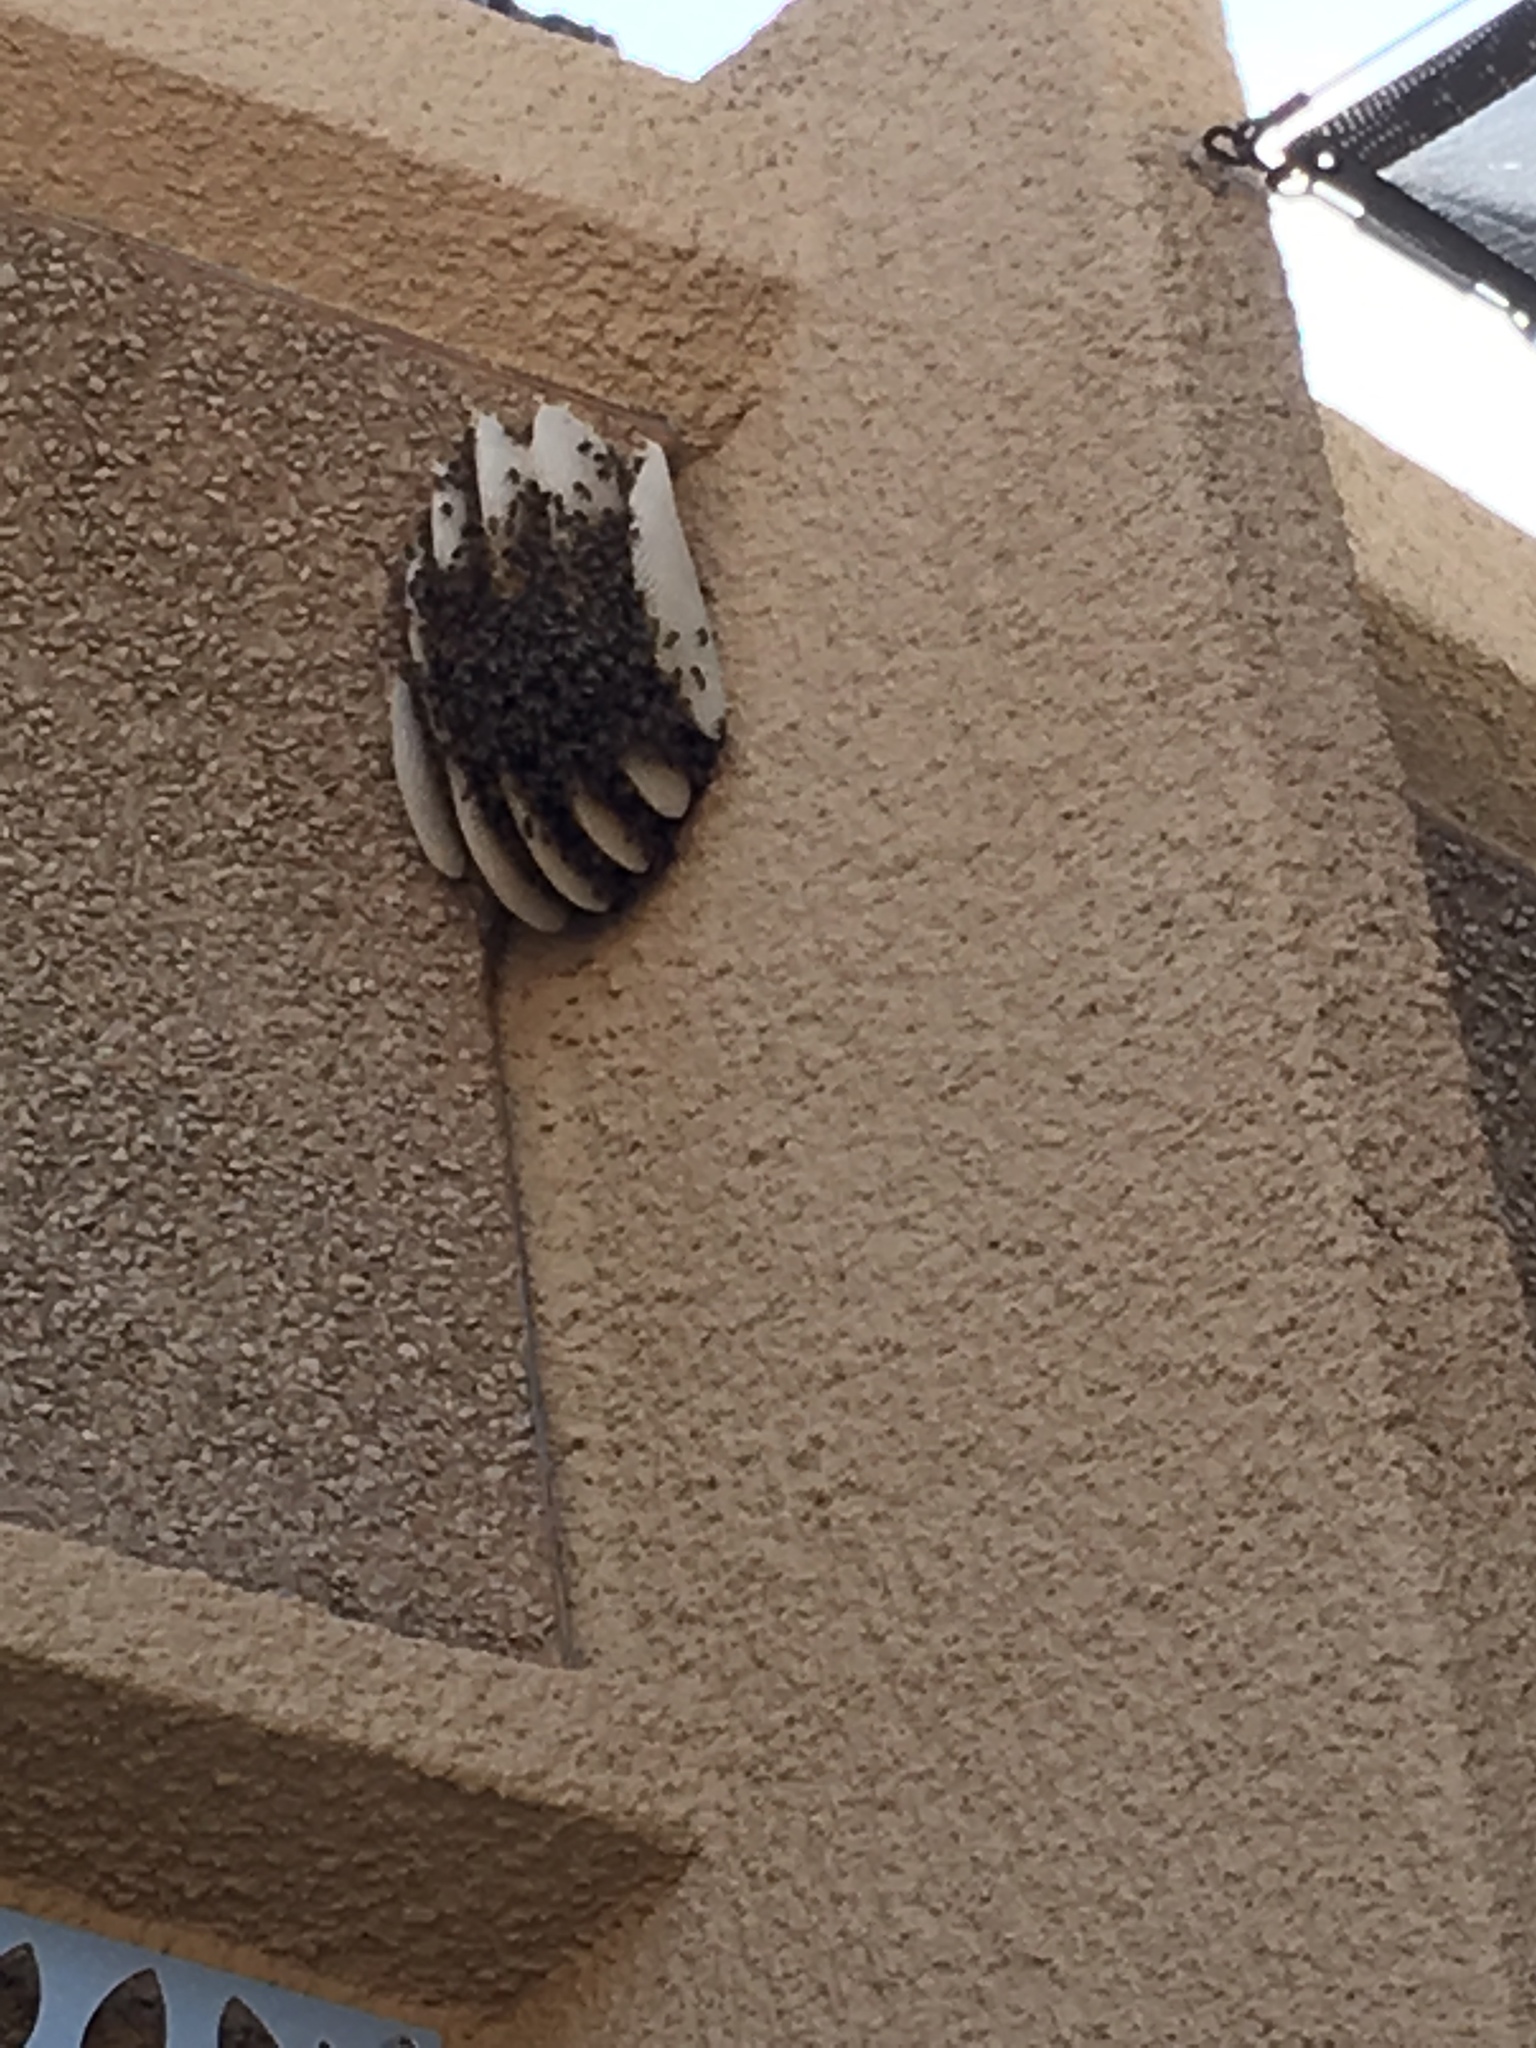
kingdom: Animalia
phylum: Arthropoda
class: Insecta
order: Hymenoptera
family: Apidae
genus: Apis
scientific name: Apis mellifera
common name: Honey bee
